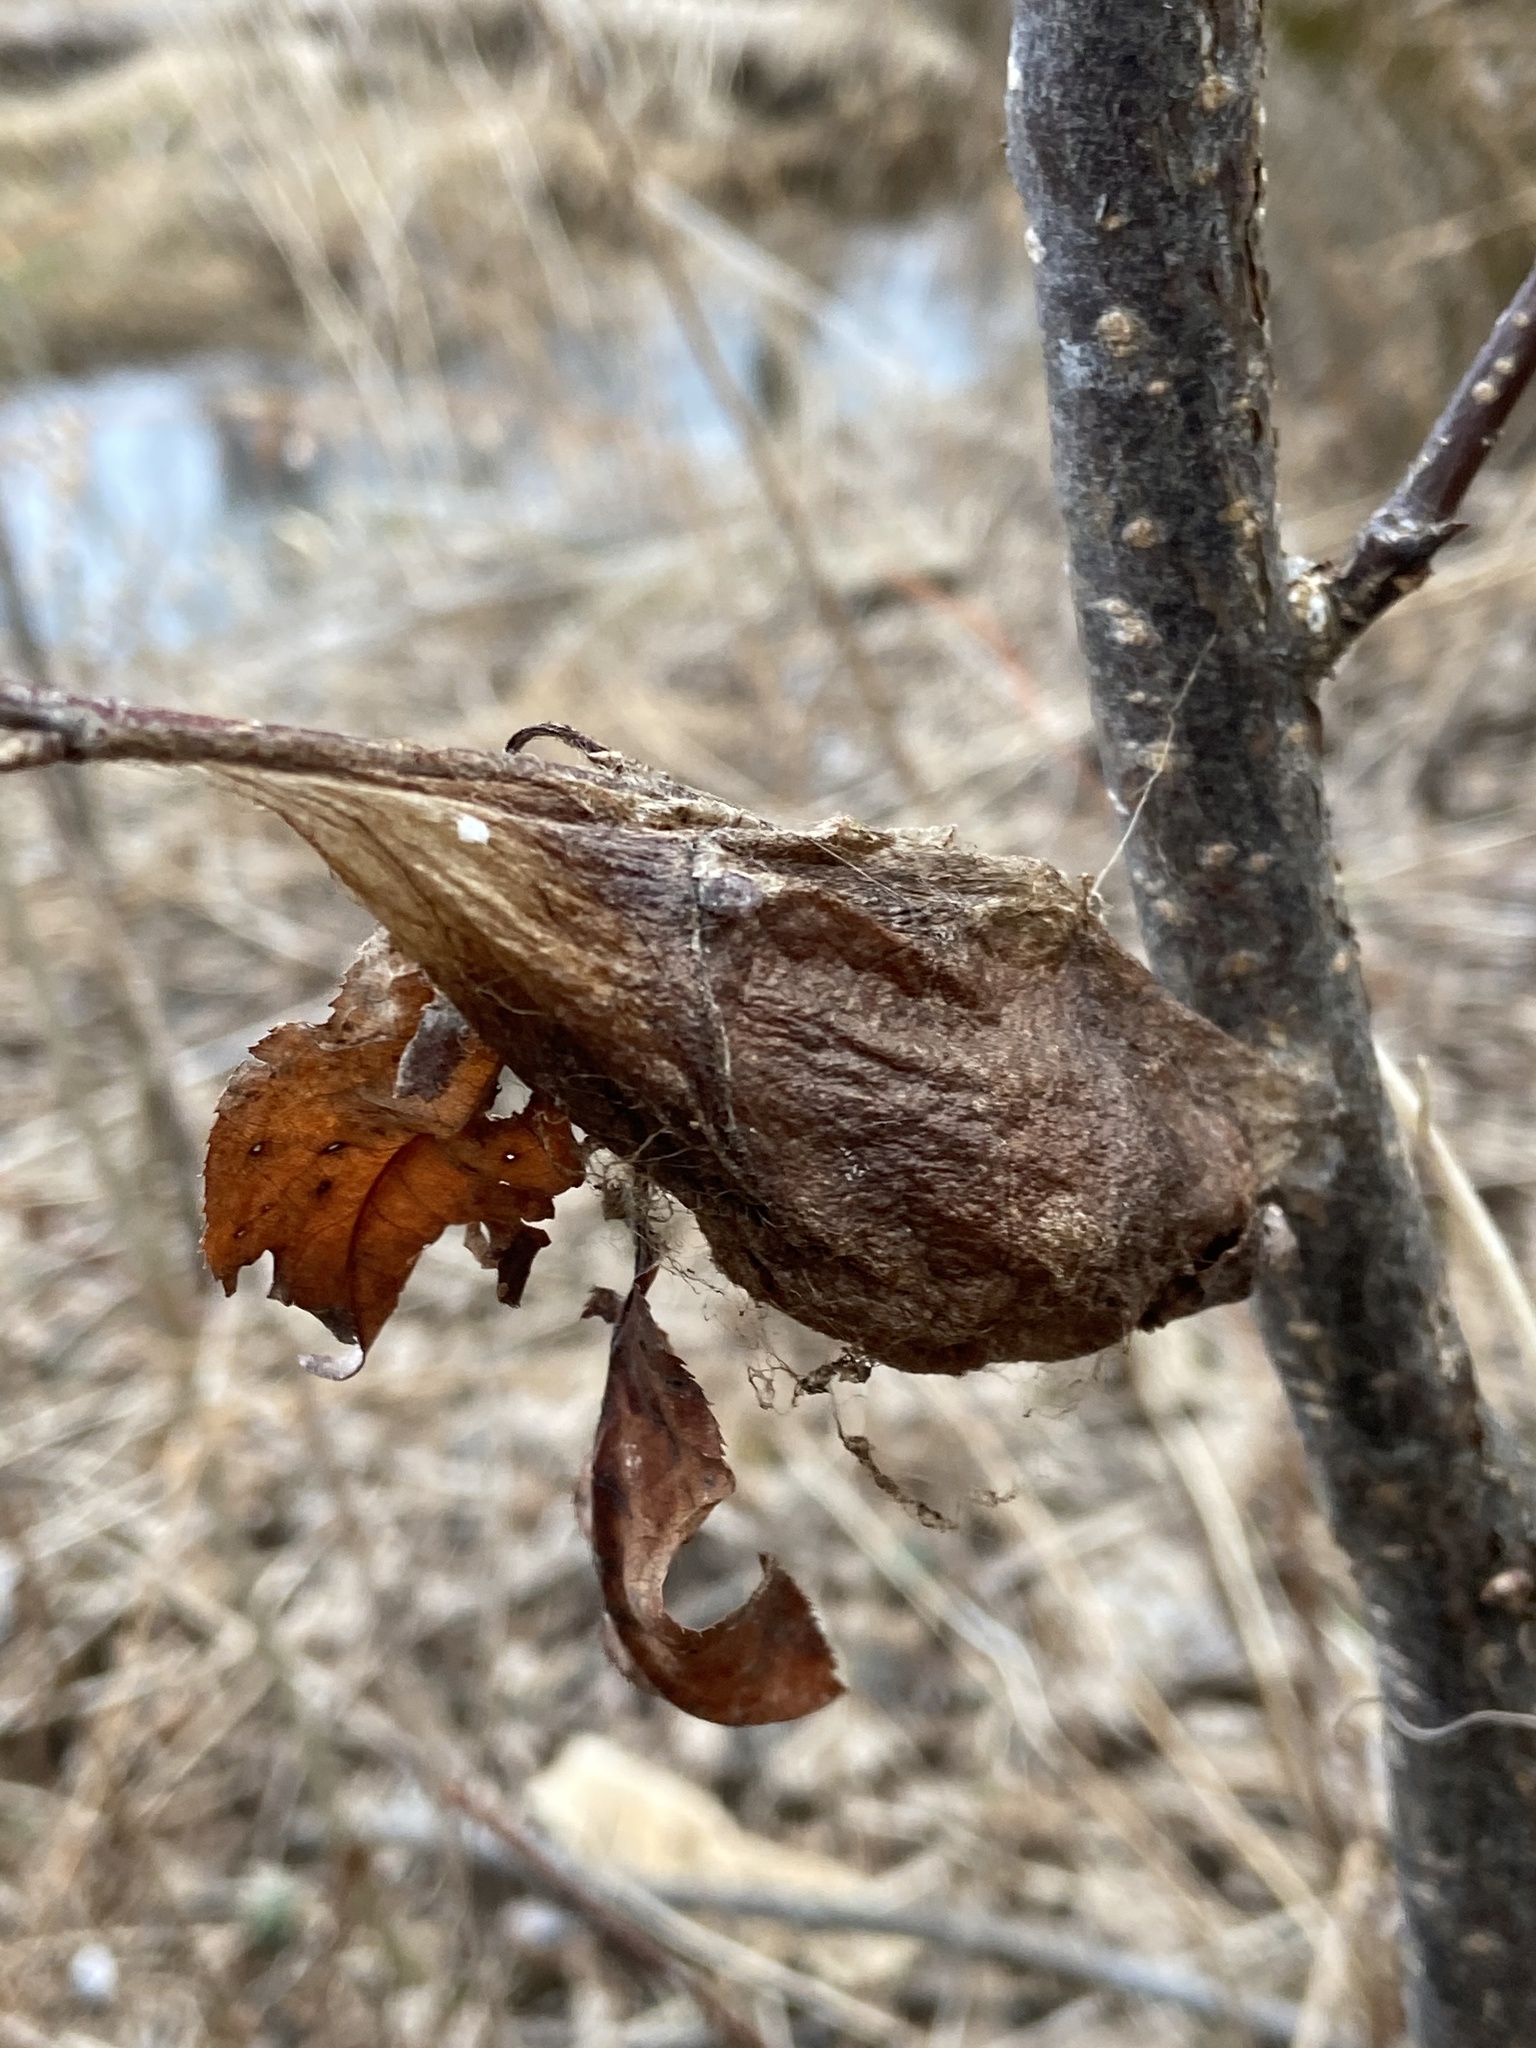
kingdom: Animalia
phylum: Arthropoda
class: Insecta
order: Lepidoptera
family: Saturniidae
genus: Hyalophora
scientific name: Hyalophora cecropia
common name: Cecropia silkmoth
